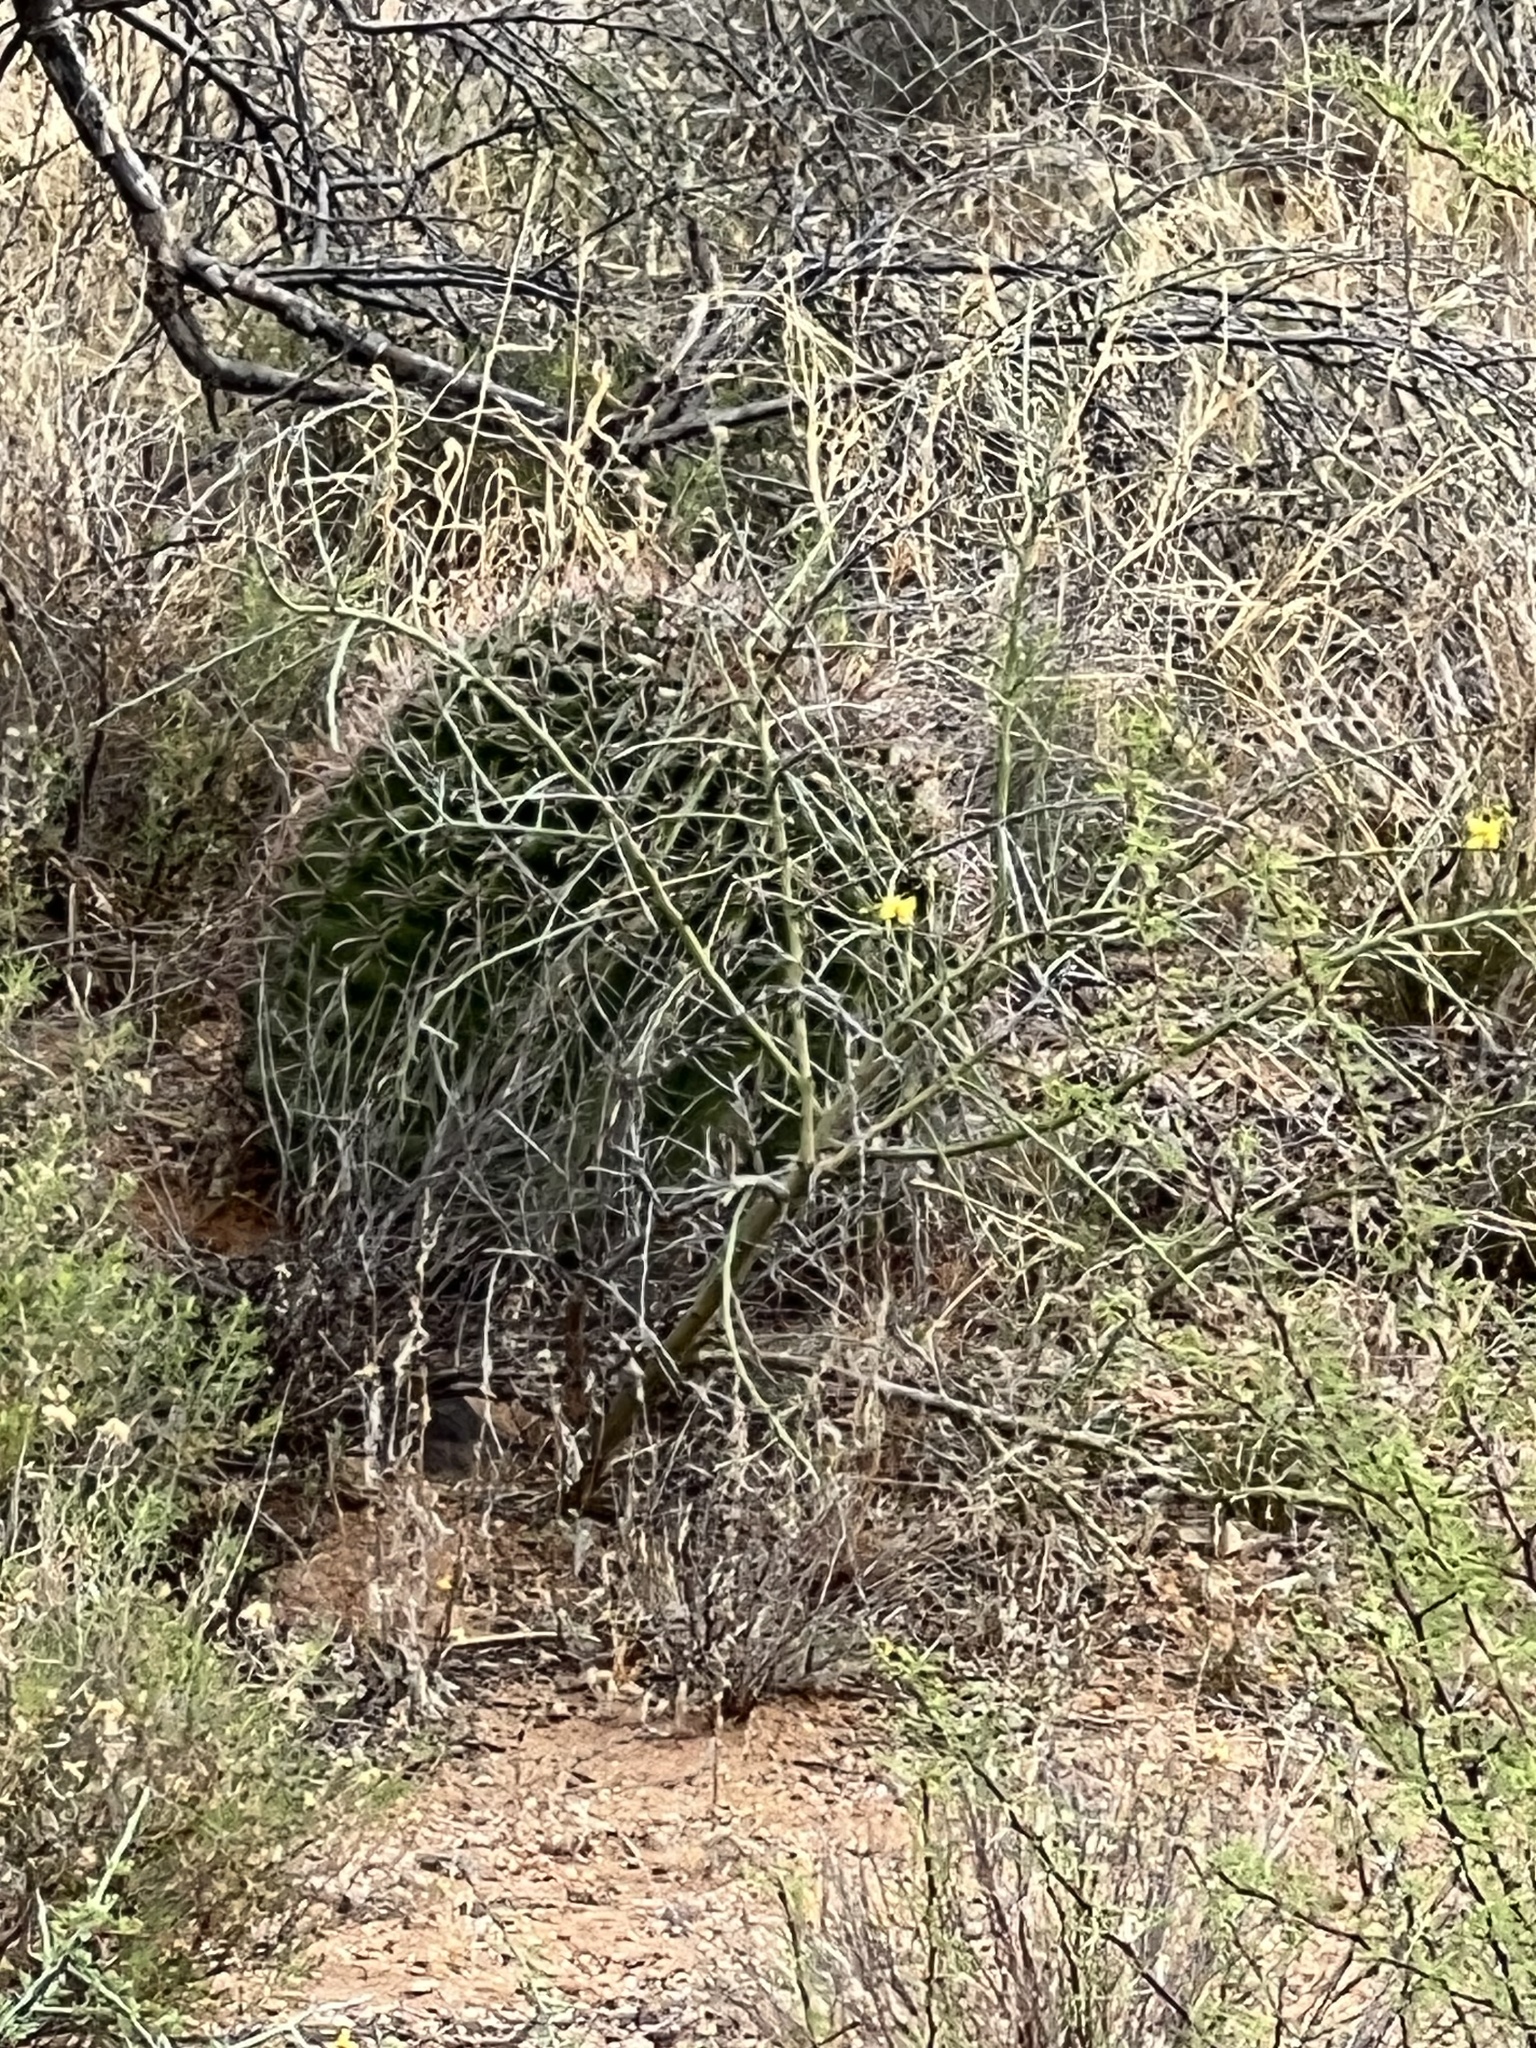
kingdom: Plantae
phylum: Tracheophyta
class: Magnoliopsida
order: Caryophyllales
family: Cactaceae
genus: Ferocactus
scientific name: Ferocactus wislizeni
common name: Candy barrel cactus
